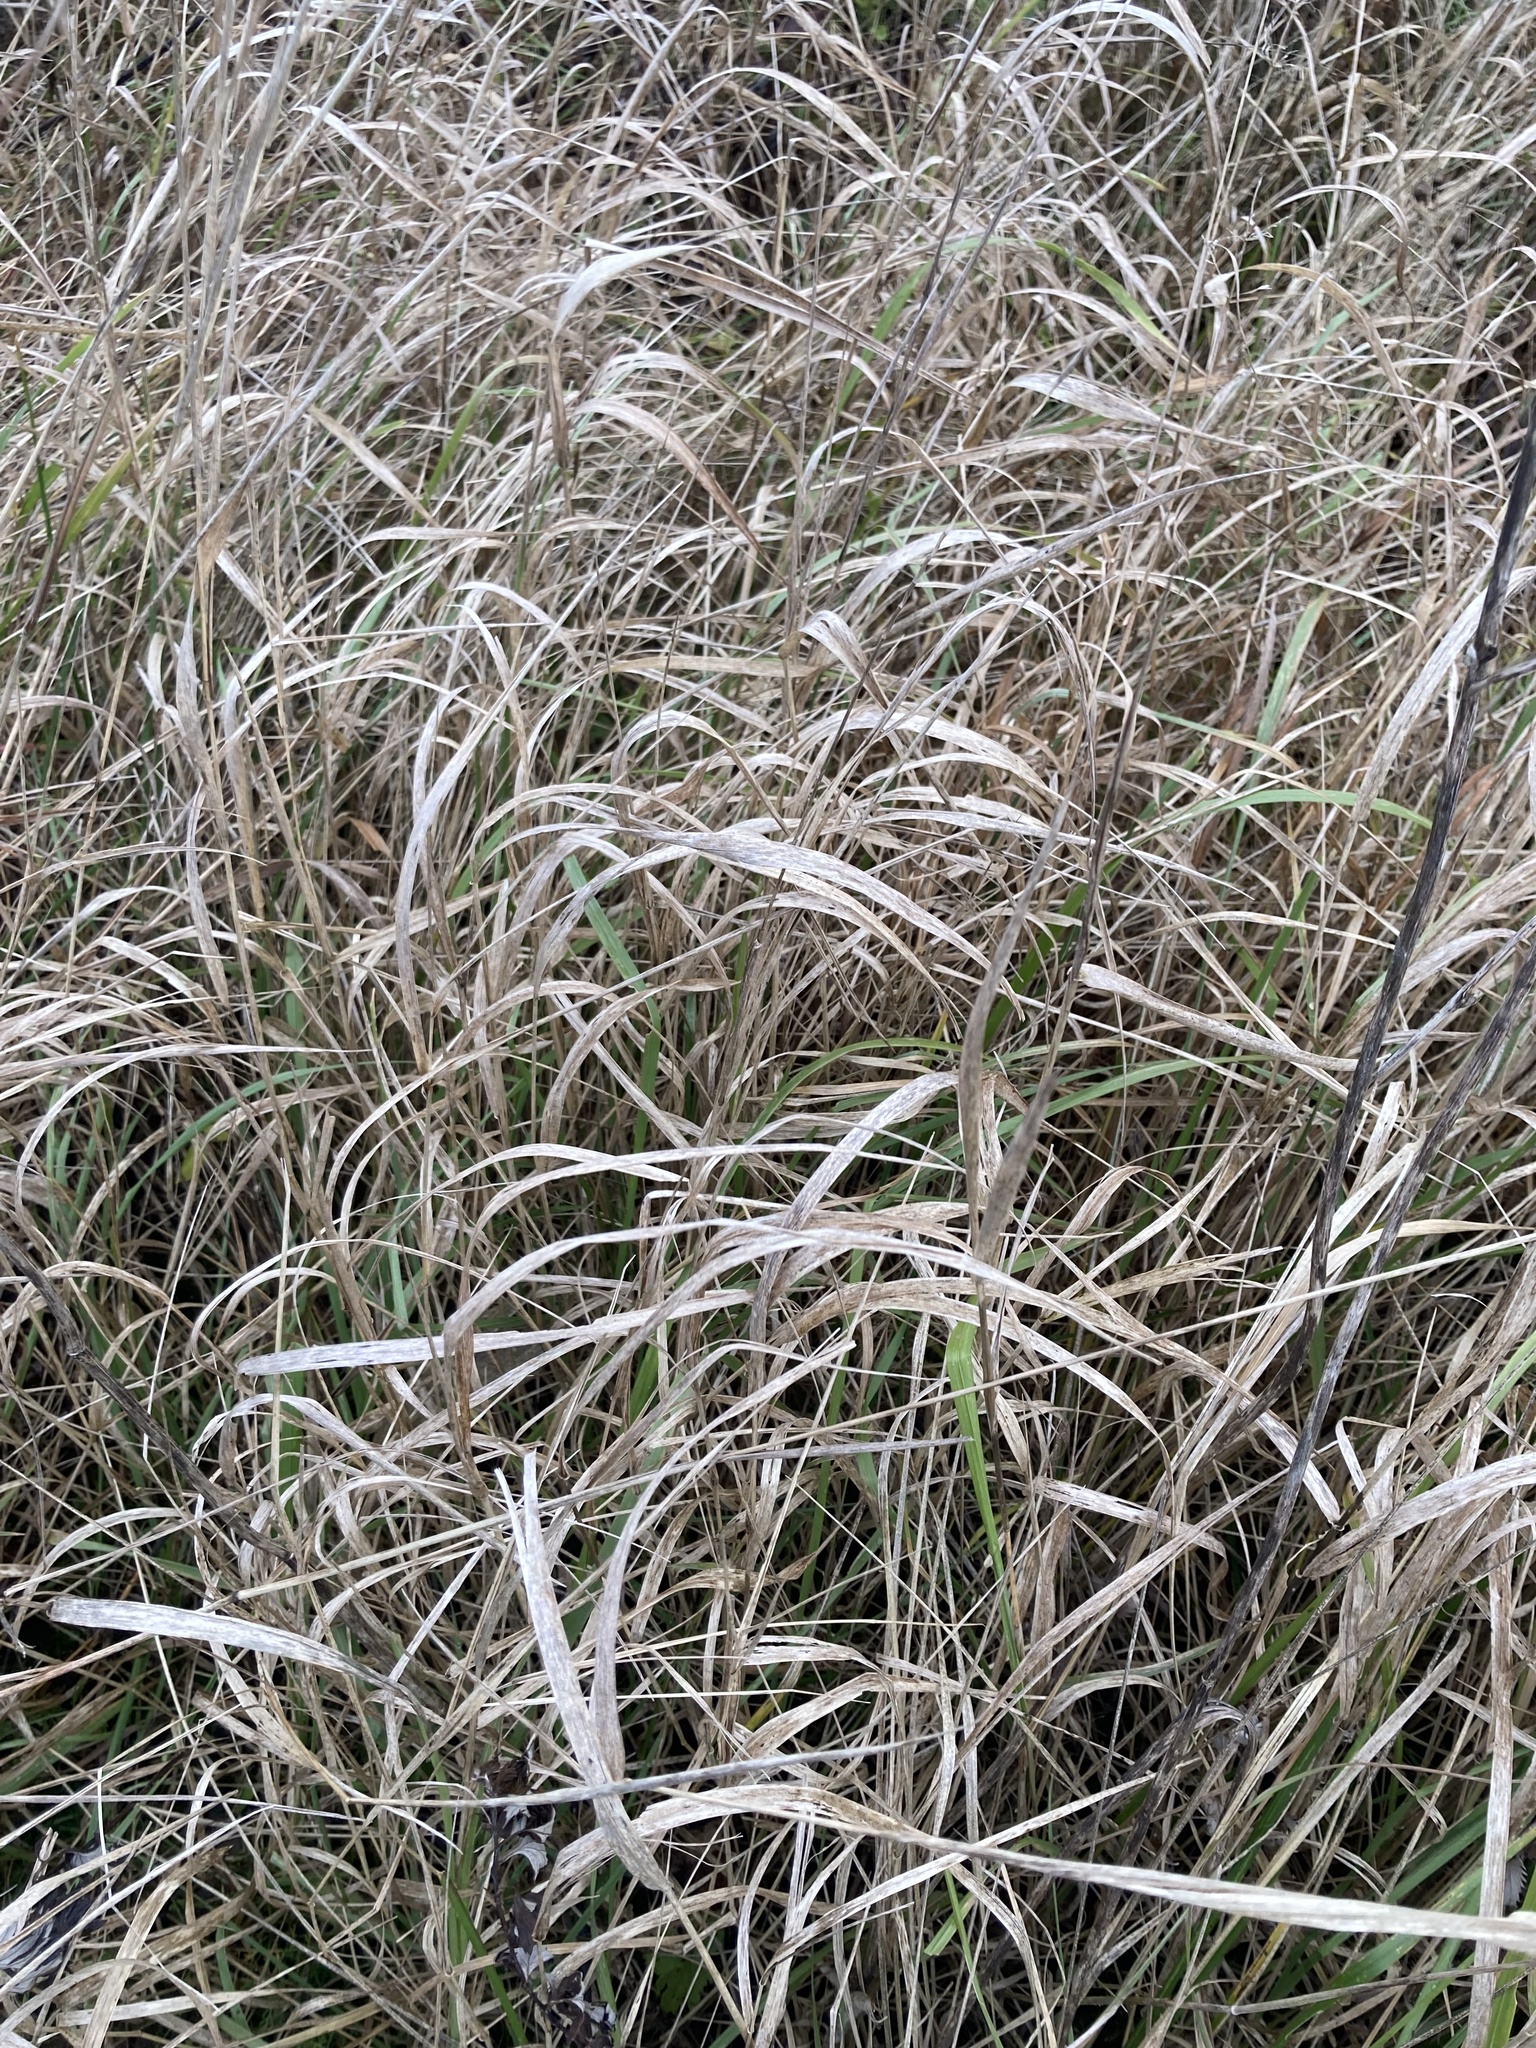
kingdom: Plantae
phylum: Tracheophyta
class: Liliopsida
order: Poales
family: Poaceae
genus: Dactylis
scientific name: Dactylis glomerata
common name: Orchardgrass
